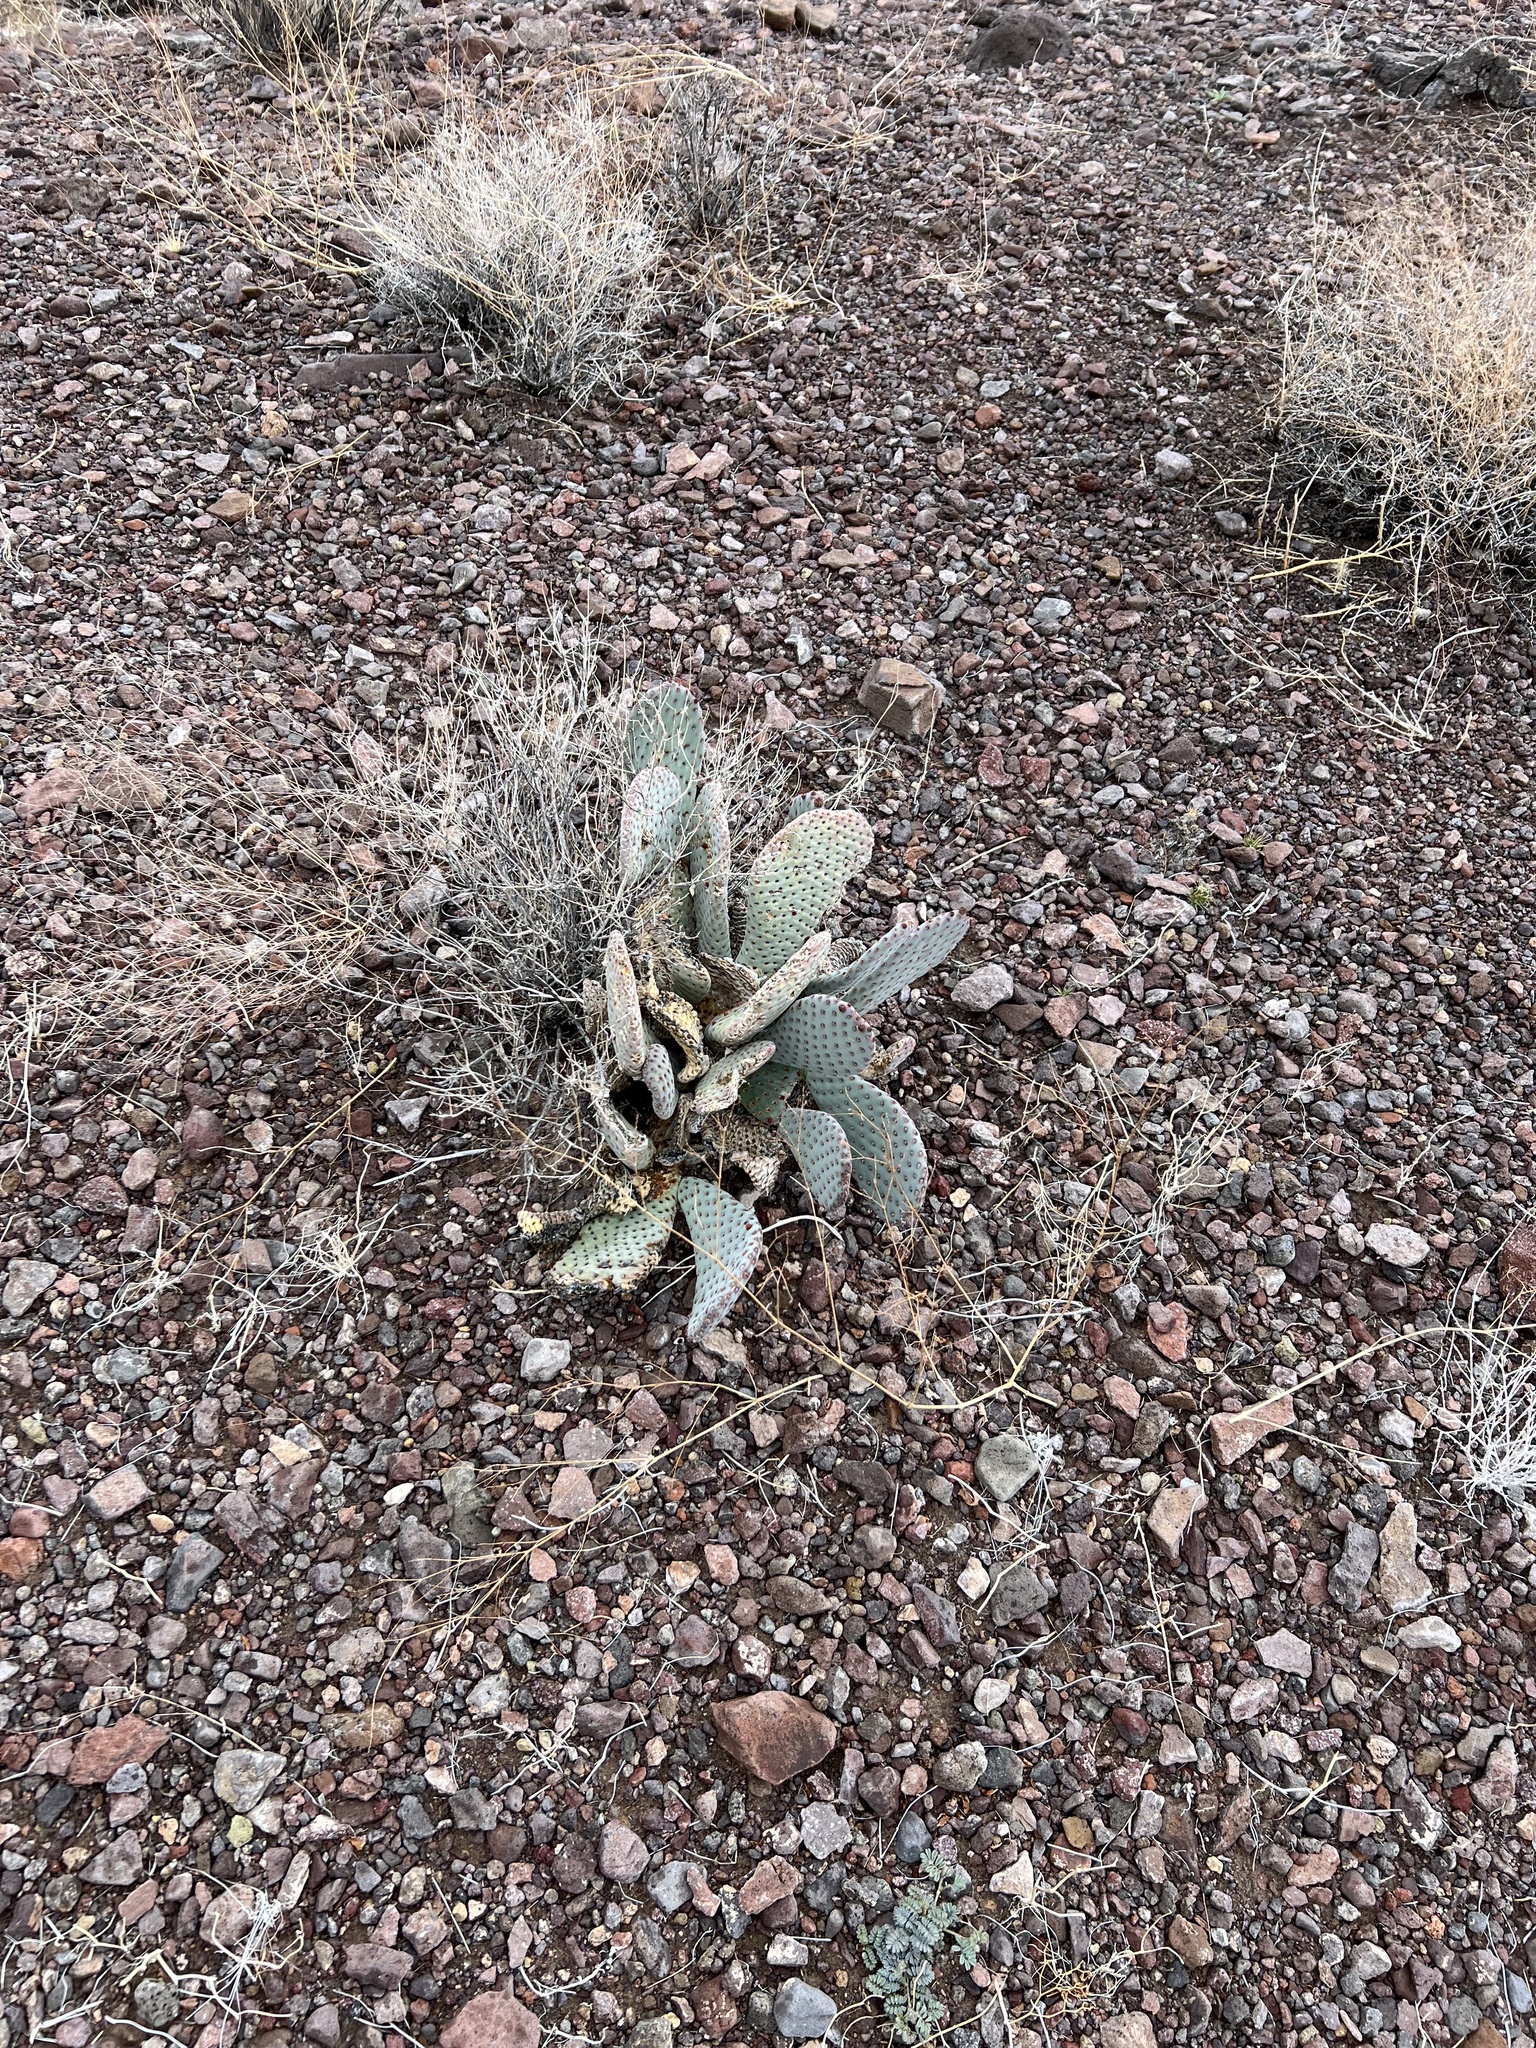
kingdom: Plantae
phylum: Tracheophyta
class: Magnoliopsida
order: Caryophyllales
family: Cactaceae
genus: Opuntia
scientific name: Opuntia basilaris
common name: Beavertail prickly-pear
